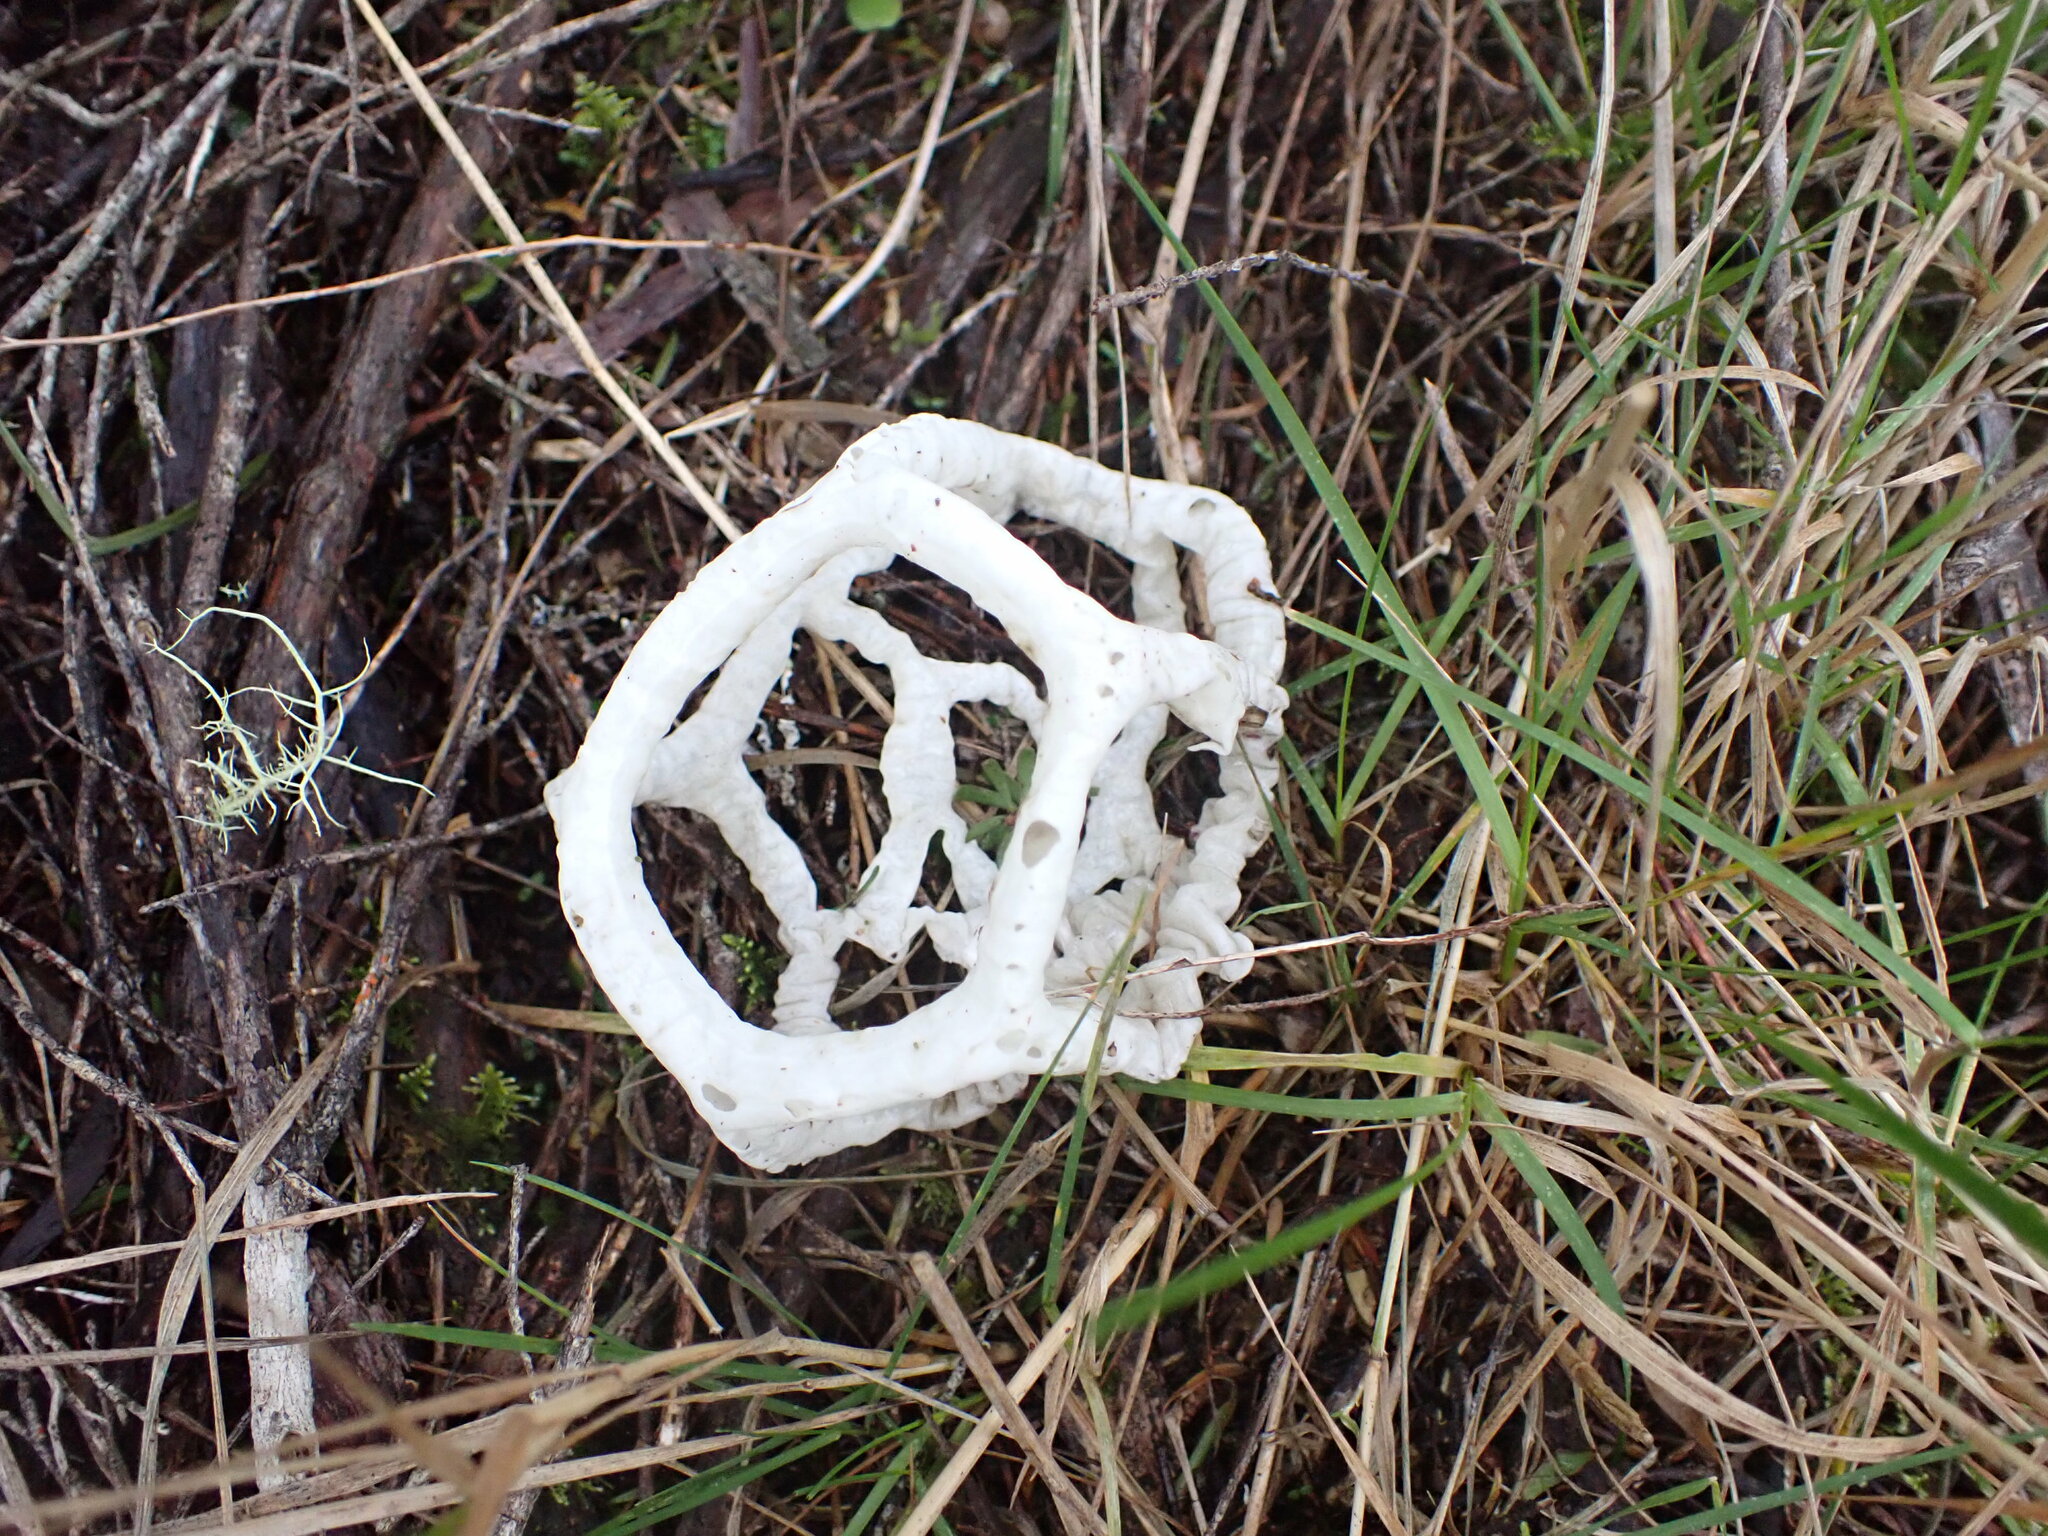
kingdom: Fungi
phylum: Basidiomycota
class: Agaricomycetes
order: Phallales
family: Phallaceae
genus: Ileodictyon
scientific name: Ileodictyon cibarium
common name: Basket fungus
